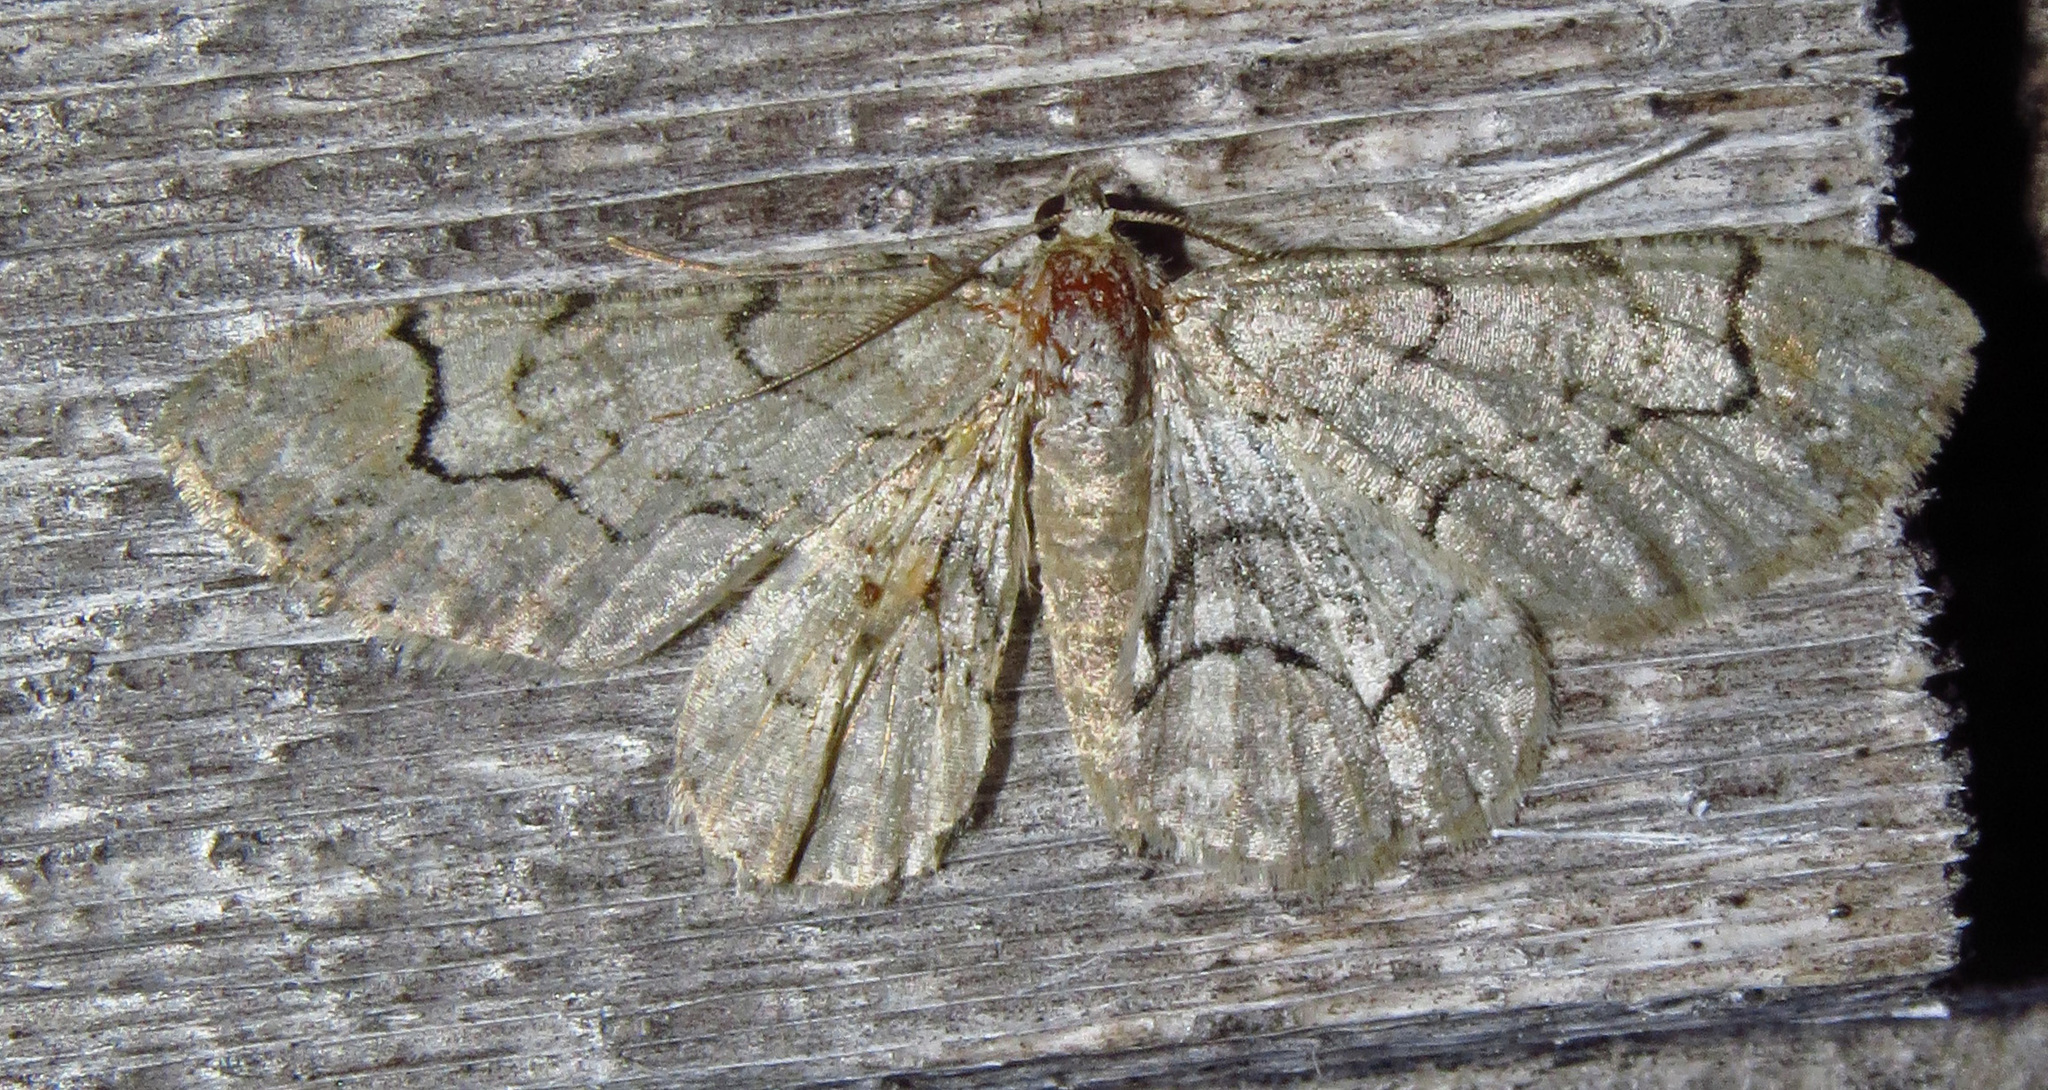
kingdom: Animalia
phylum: Arthropoda
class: Insecta
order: Lepidoptera
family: Geometridae
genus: Iridopsis
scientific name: Iridopsis larvaria
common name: Bent-line gray
